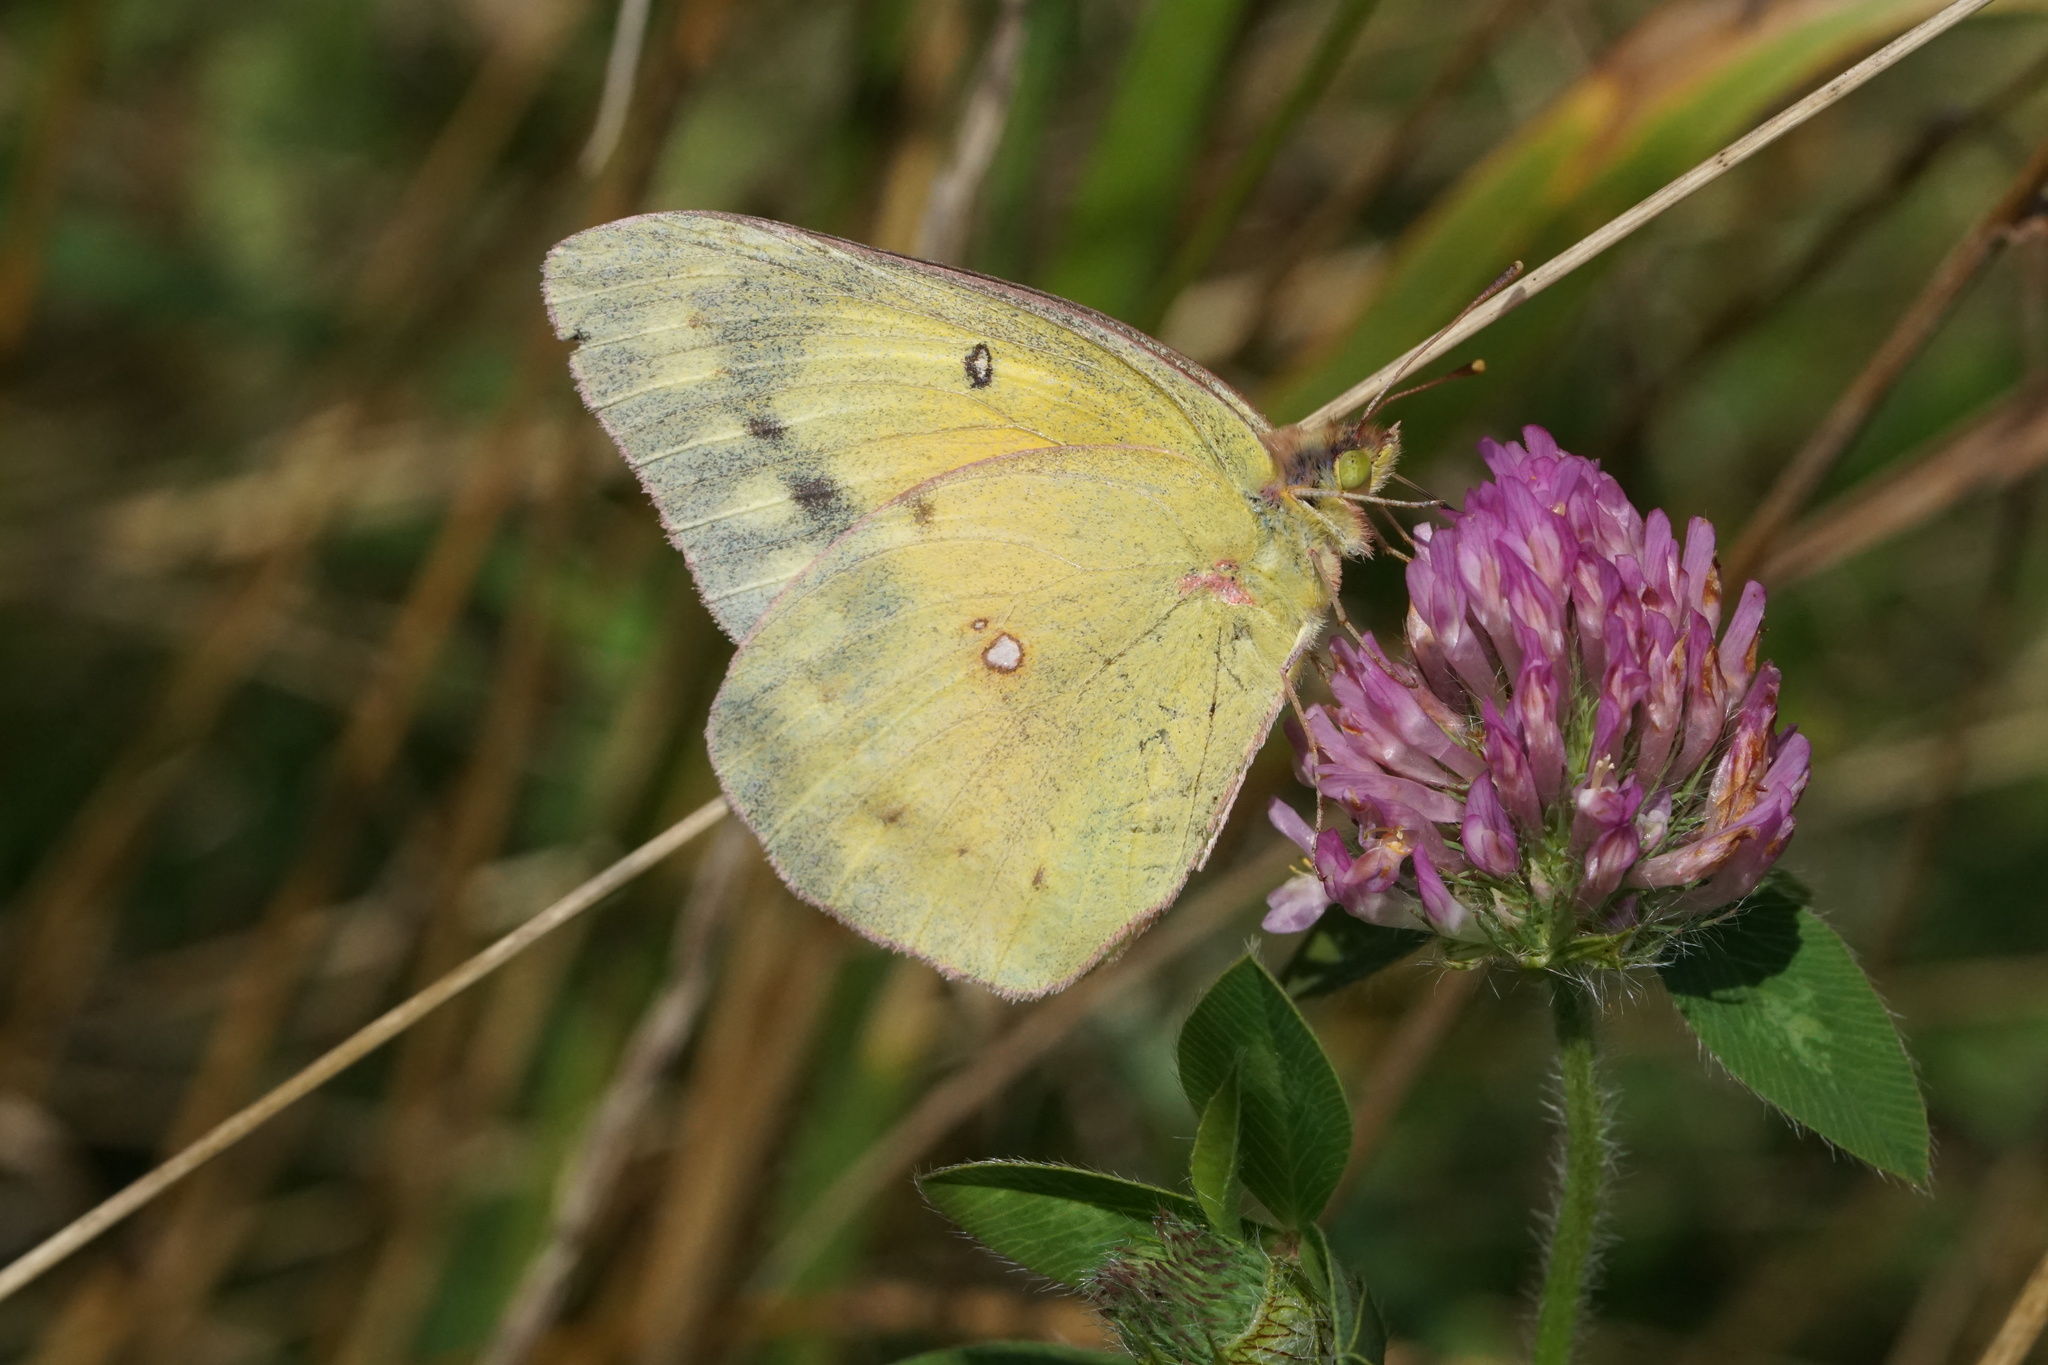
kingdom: Animalia
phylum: Arthropoda
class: Insecta
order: Lepidoptera
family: Pieridae
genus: Colias
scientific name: Colias eurytheme
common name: Alfalfa butterfly
